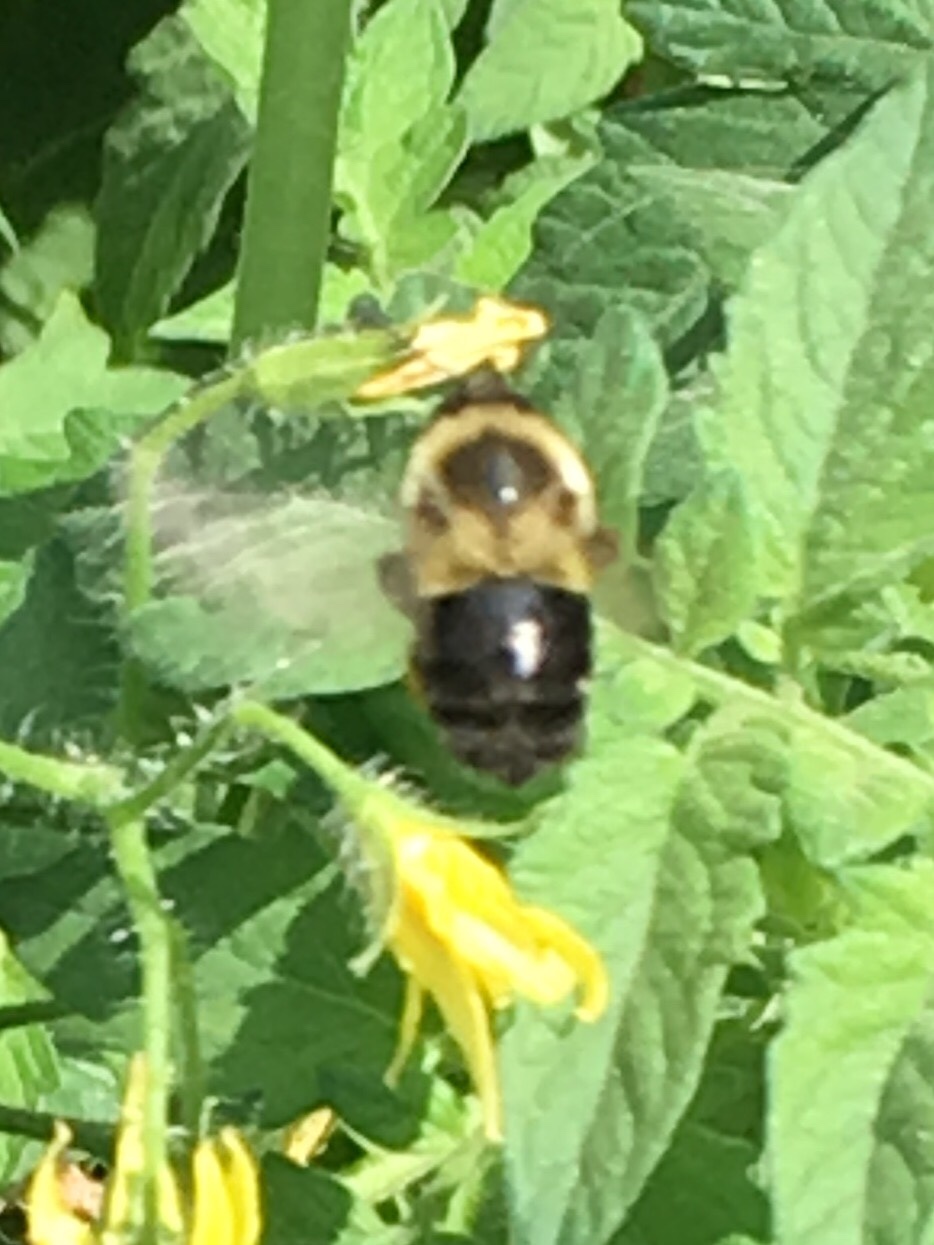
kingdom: Animalia
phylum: Arthropoda
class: Insecta
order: Hymenoptera
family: Apidae
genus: Bombus
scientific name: Bombus impatiens
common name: Common eastern bumble bee
